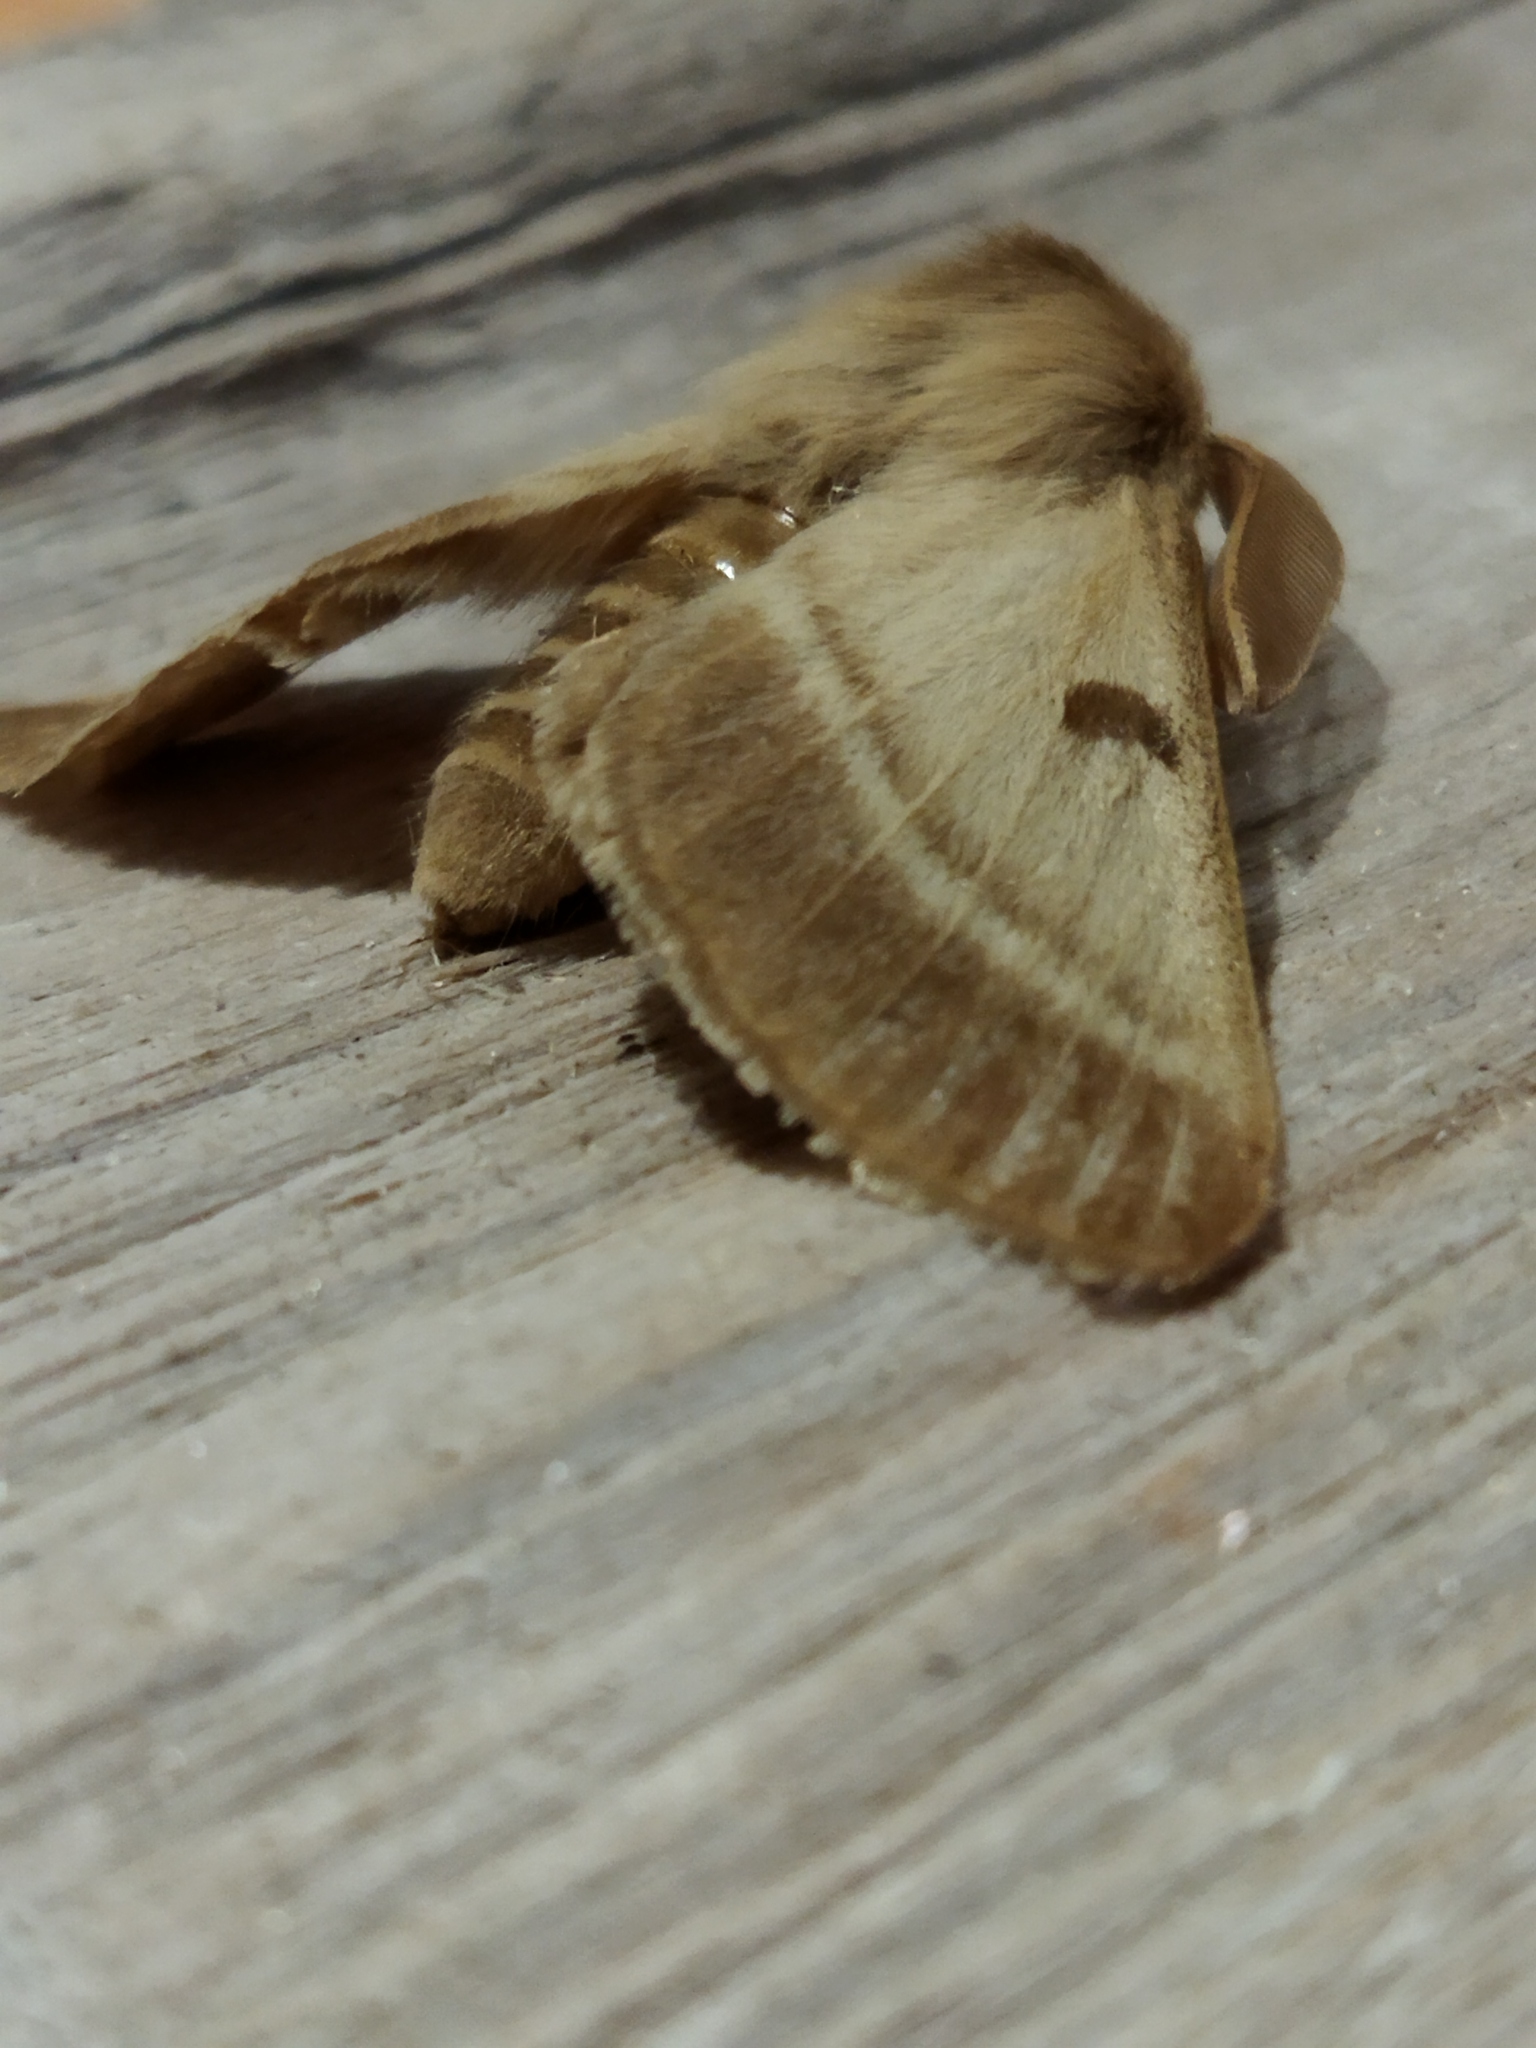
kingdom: Animalia
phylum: Arthropoda
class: Insecta
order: Lepidoptera
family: Brahmaeidae
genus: Lemonia
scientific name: Lemonia balcanica
